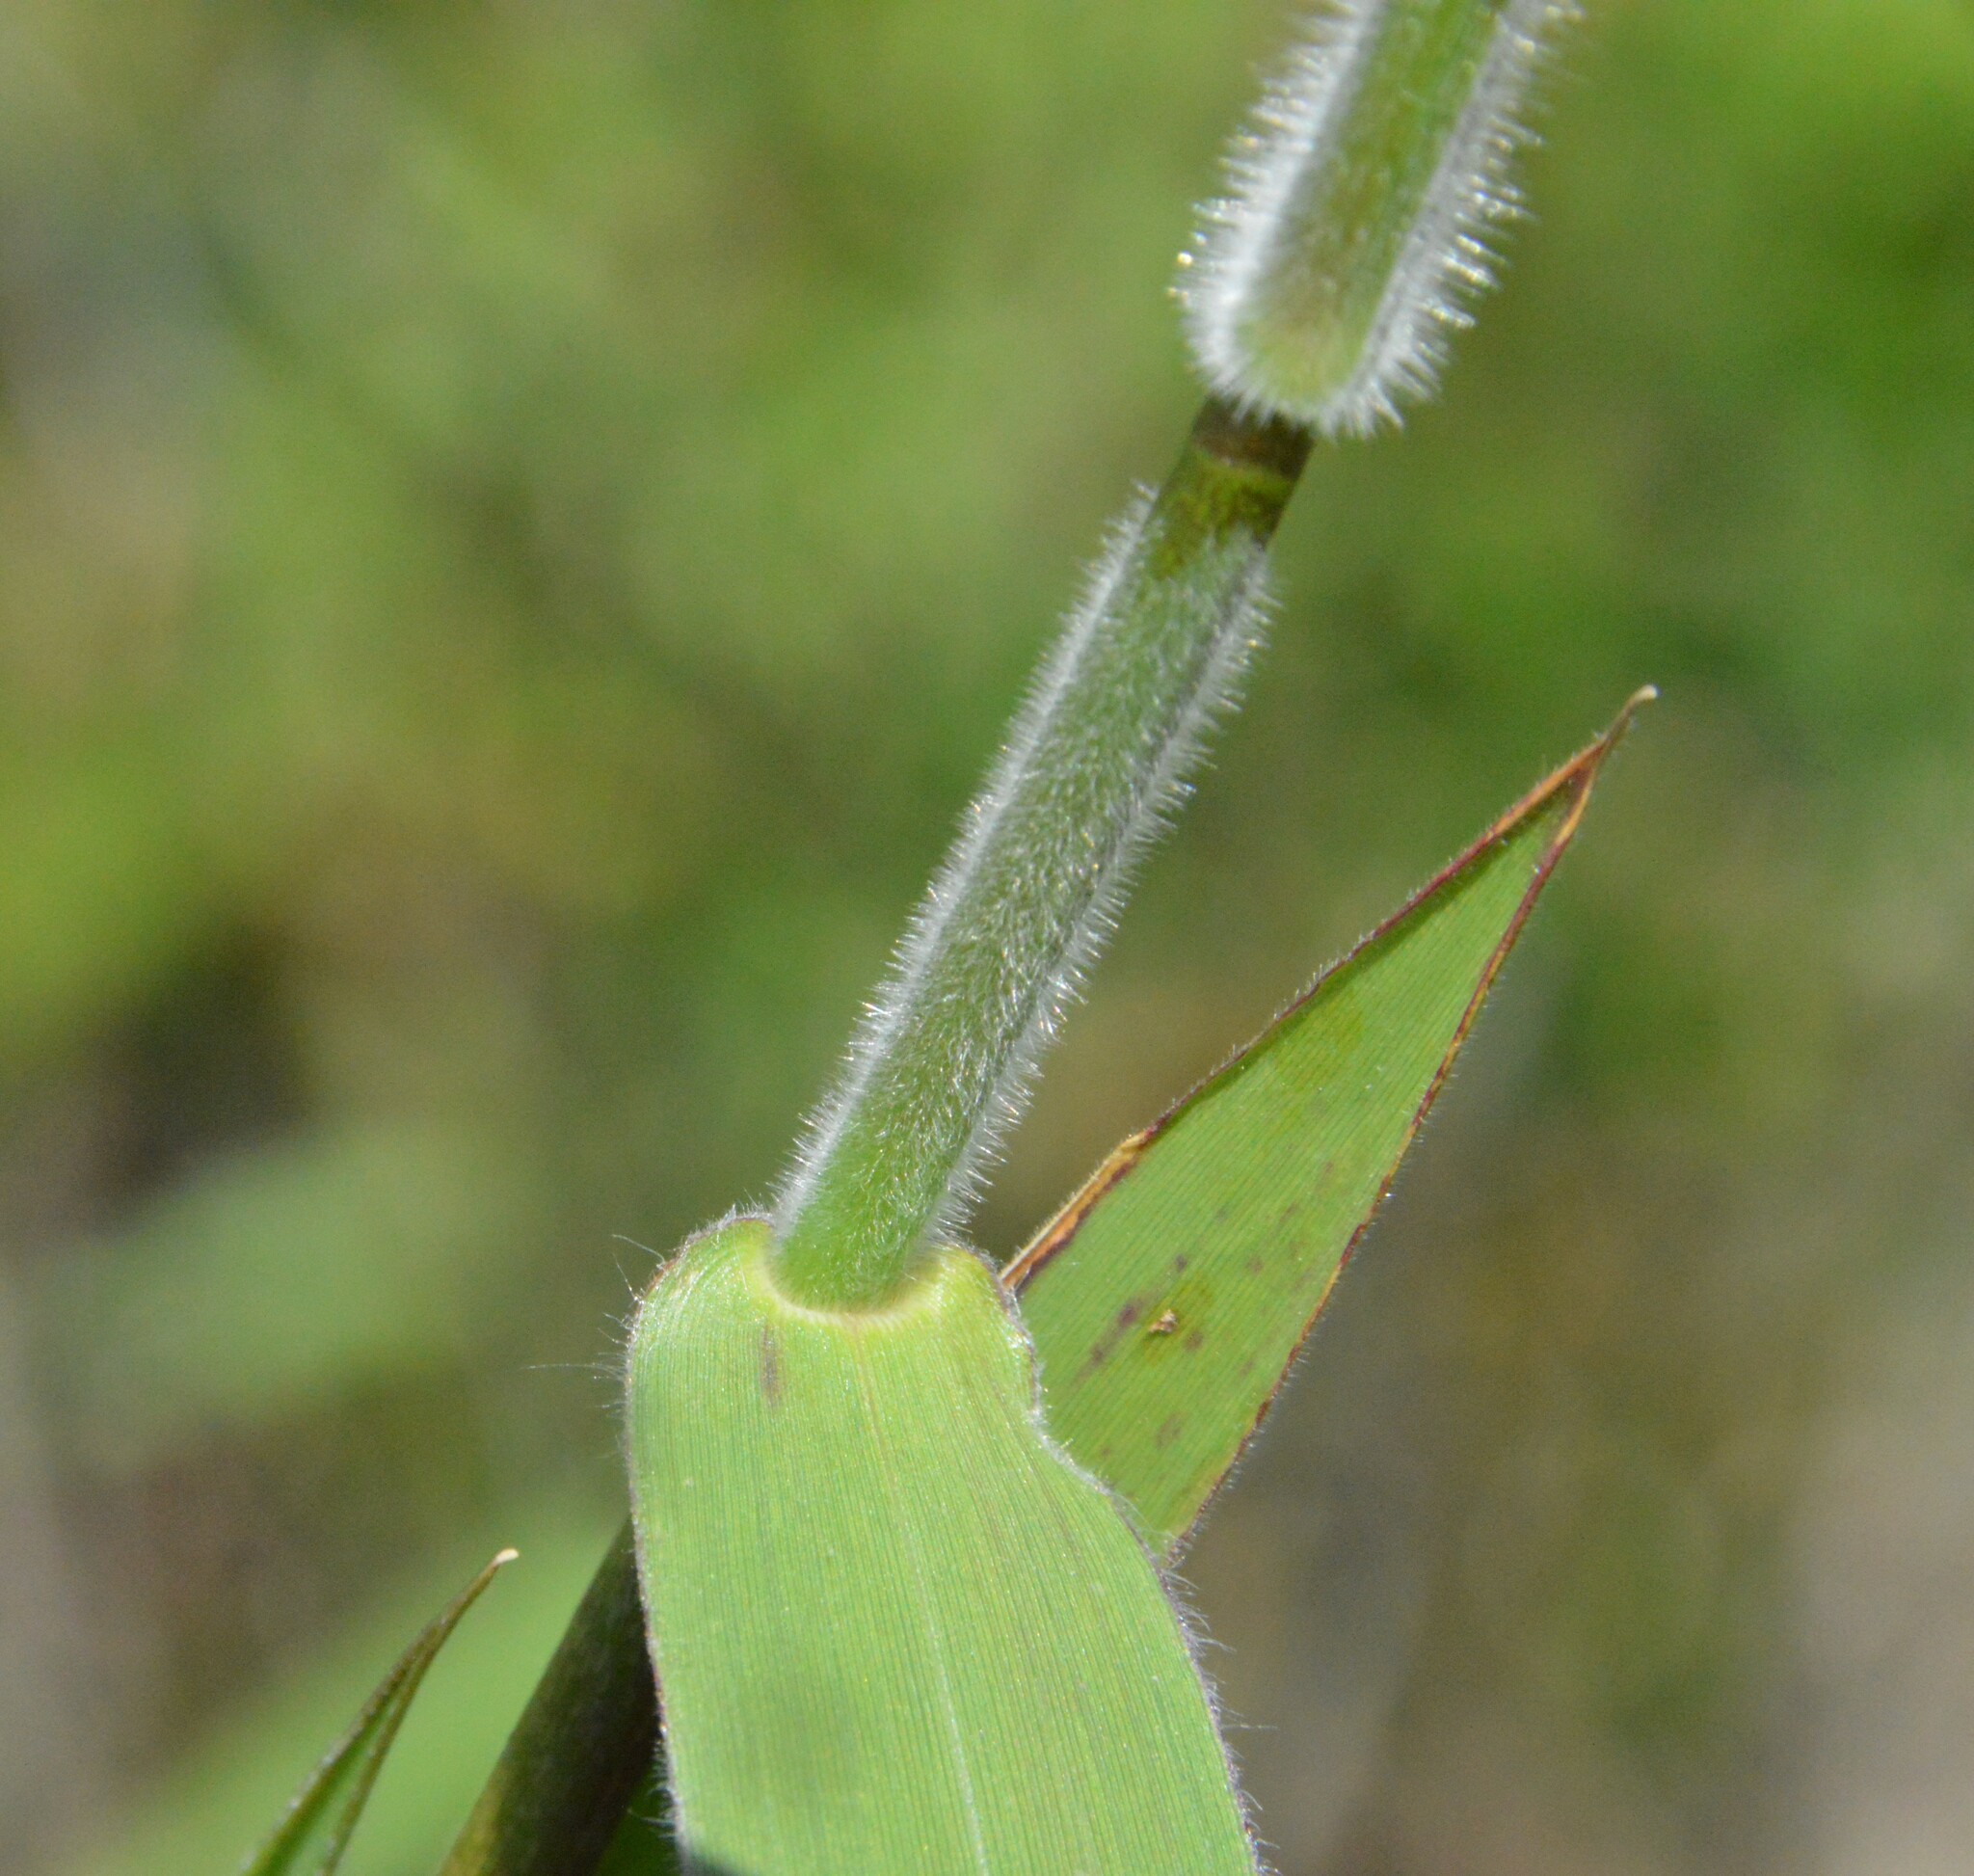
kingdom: Plantae
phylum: Tracheophyta
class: Liliopsida
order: Poales
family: Poaceae
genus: Dichanthelium
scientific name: Dichanthelium scoparium
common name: Velvety panic grass
